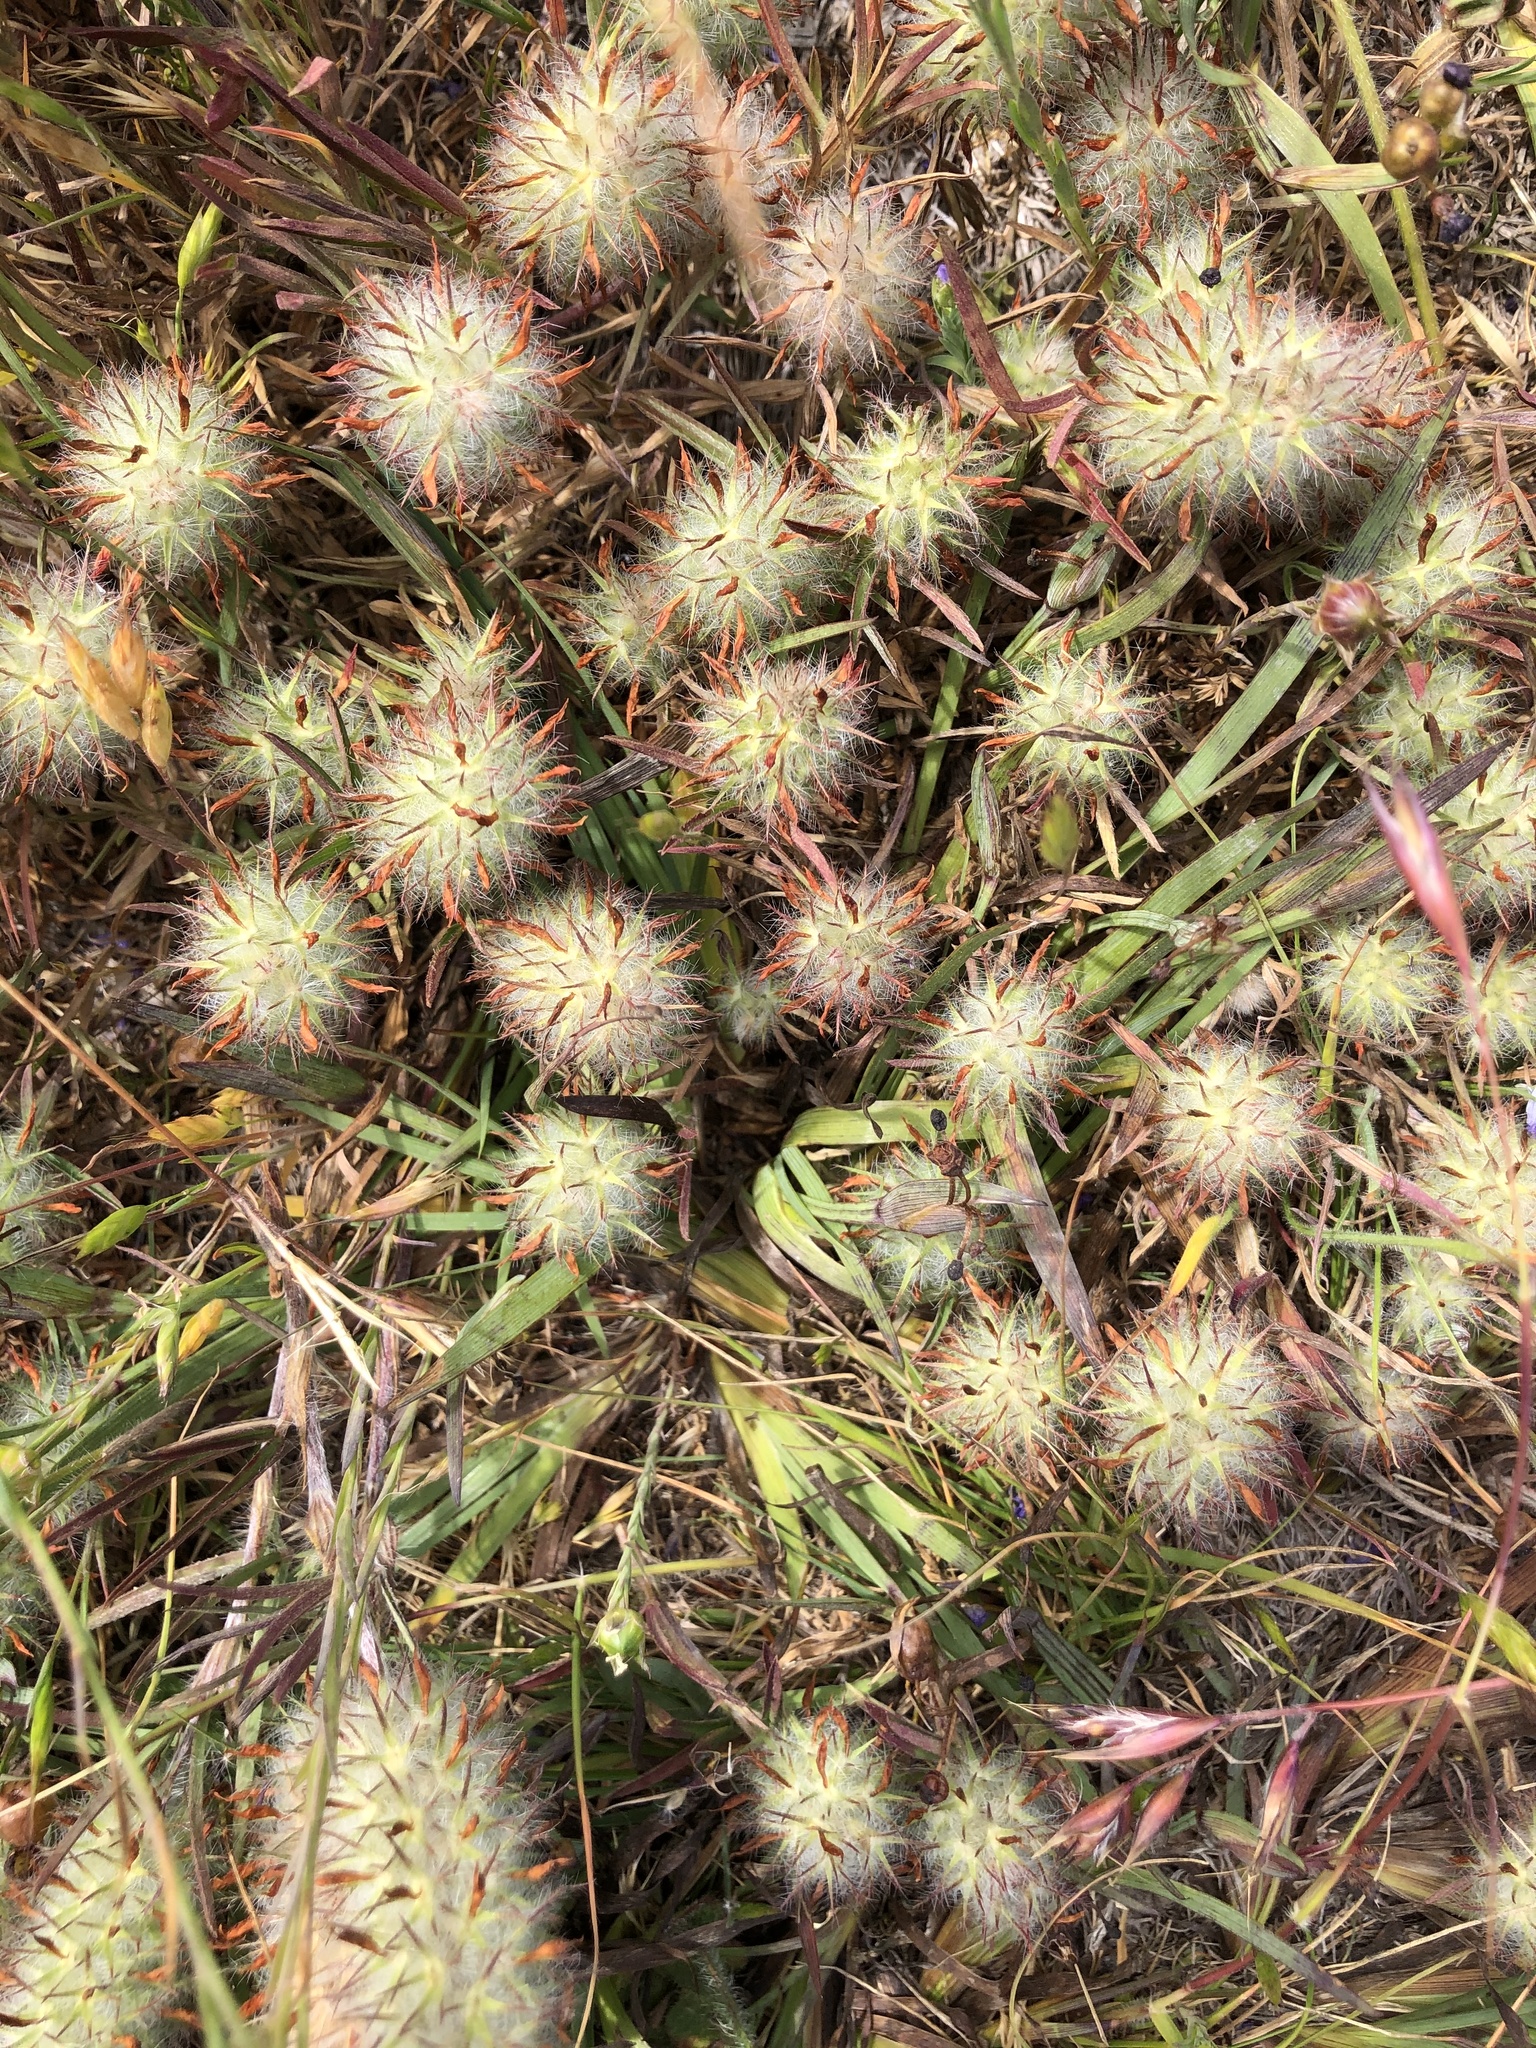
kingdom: Plantae
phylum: Tracheophyta
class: Magnoliopsida
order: Fabales
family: Fabaceae
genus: Trifolium
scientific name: Trifolium angustifolium
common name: Narrow clover
